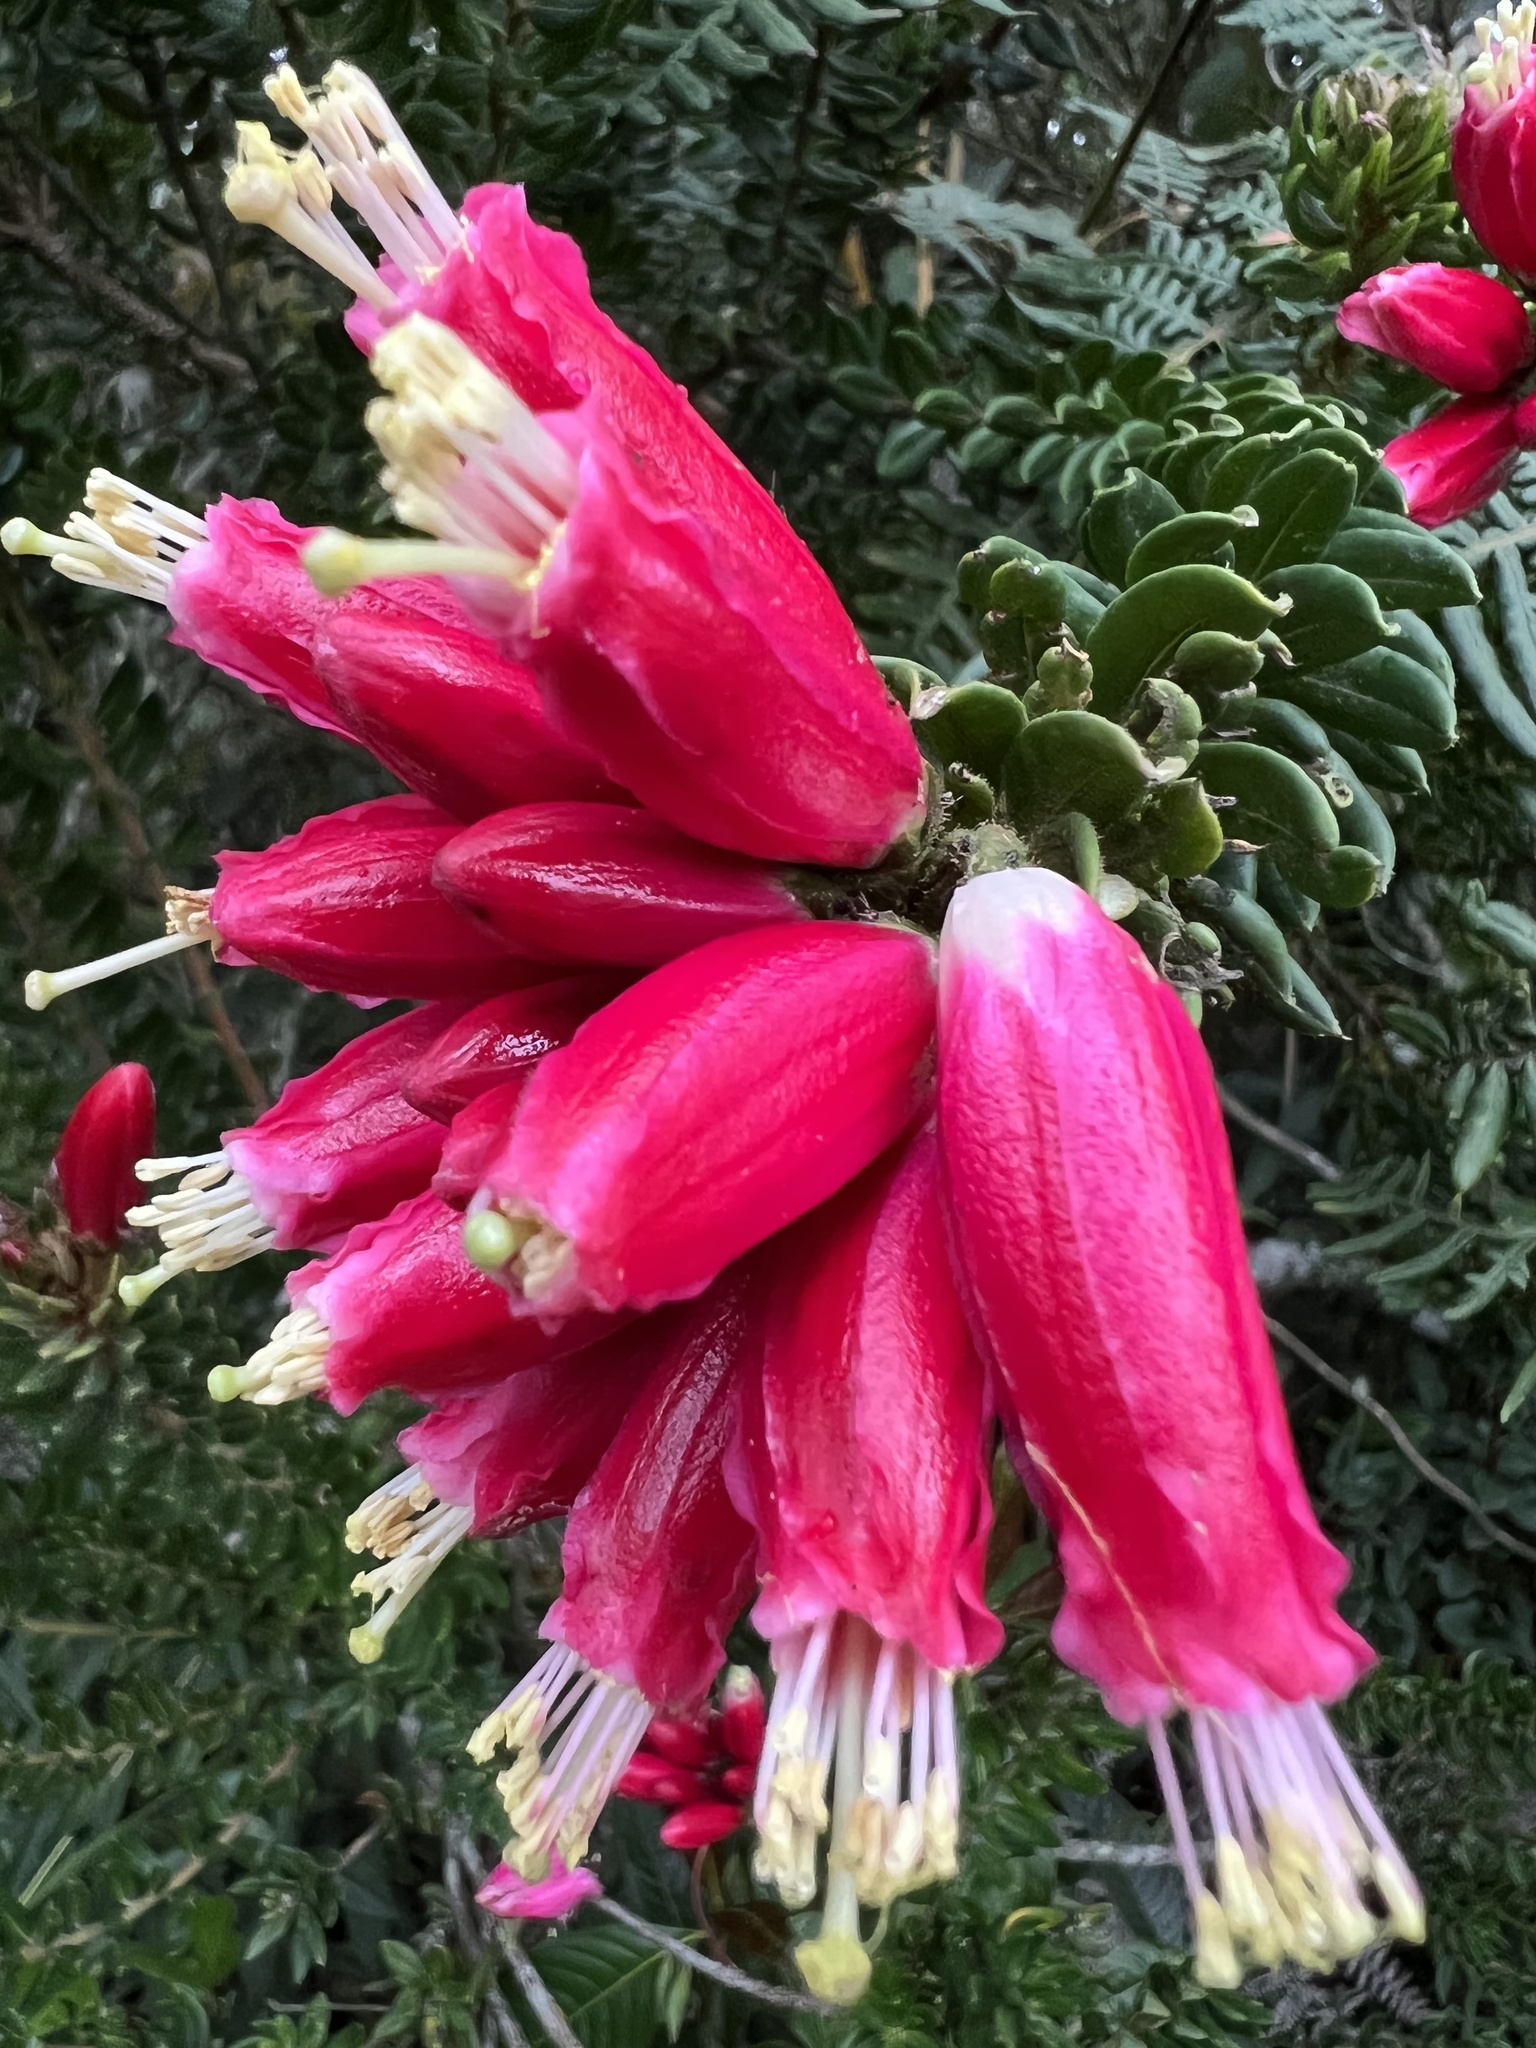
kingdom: Plantae
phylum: Tracheophyta
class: Magnoliopsida
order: Ericales
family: Ericaceae
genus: Bejaria
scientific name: Bejaria resinosa
